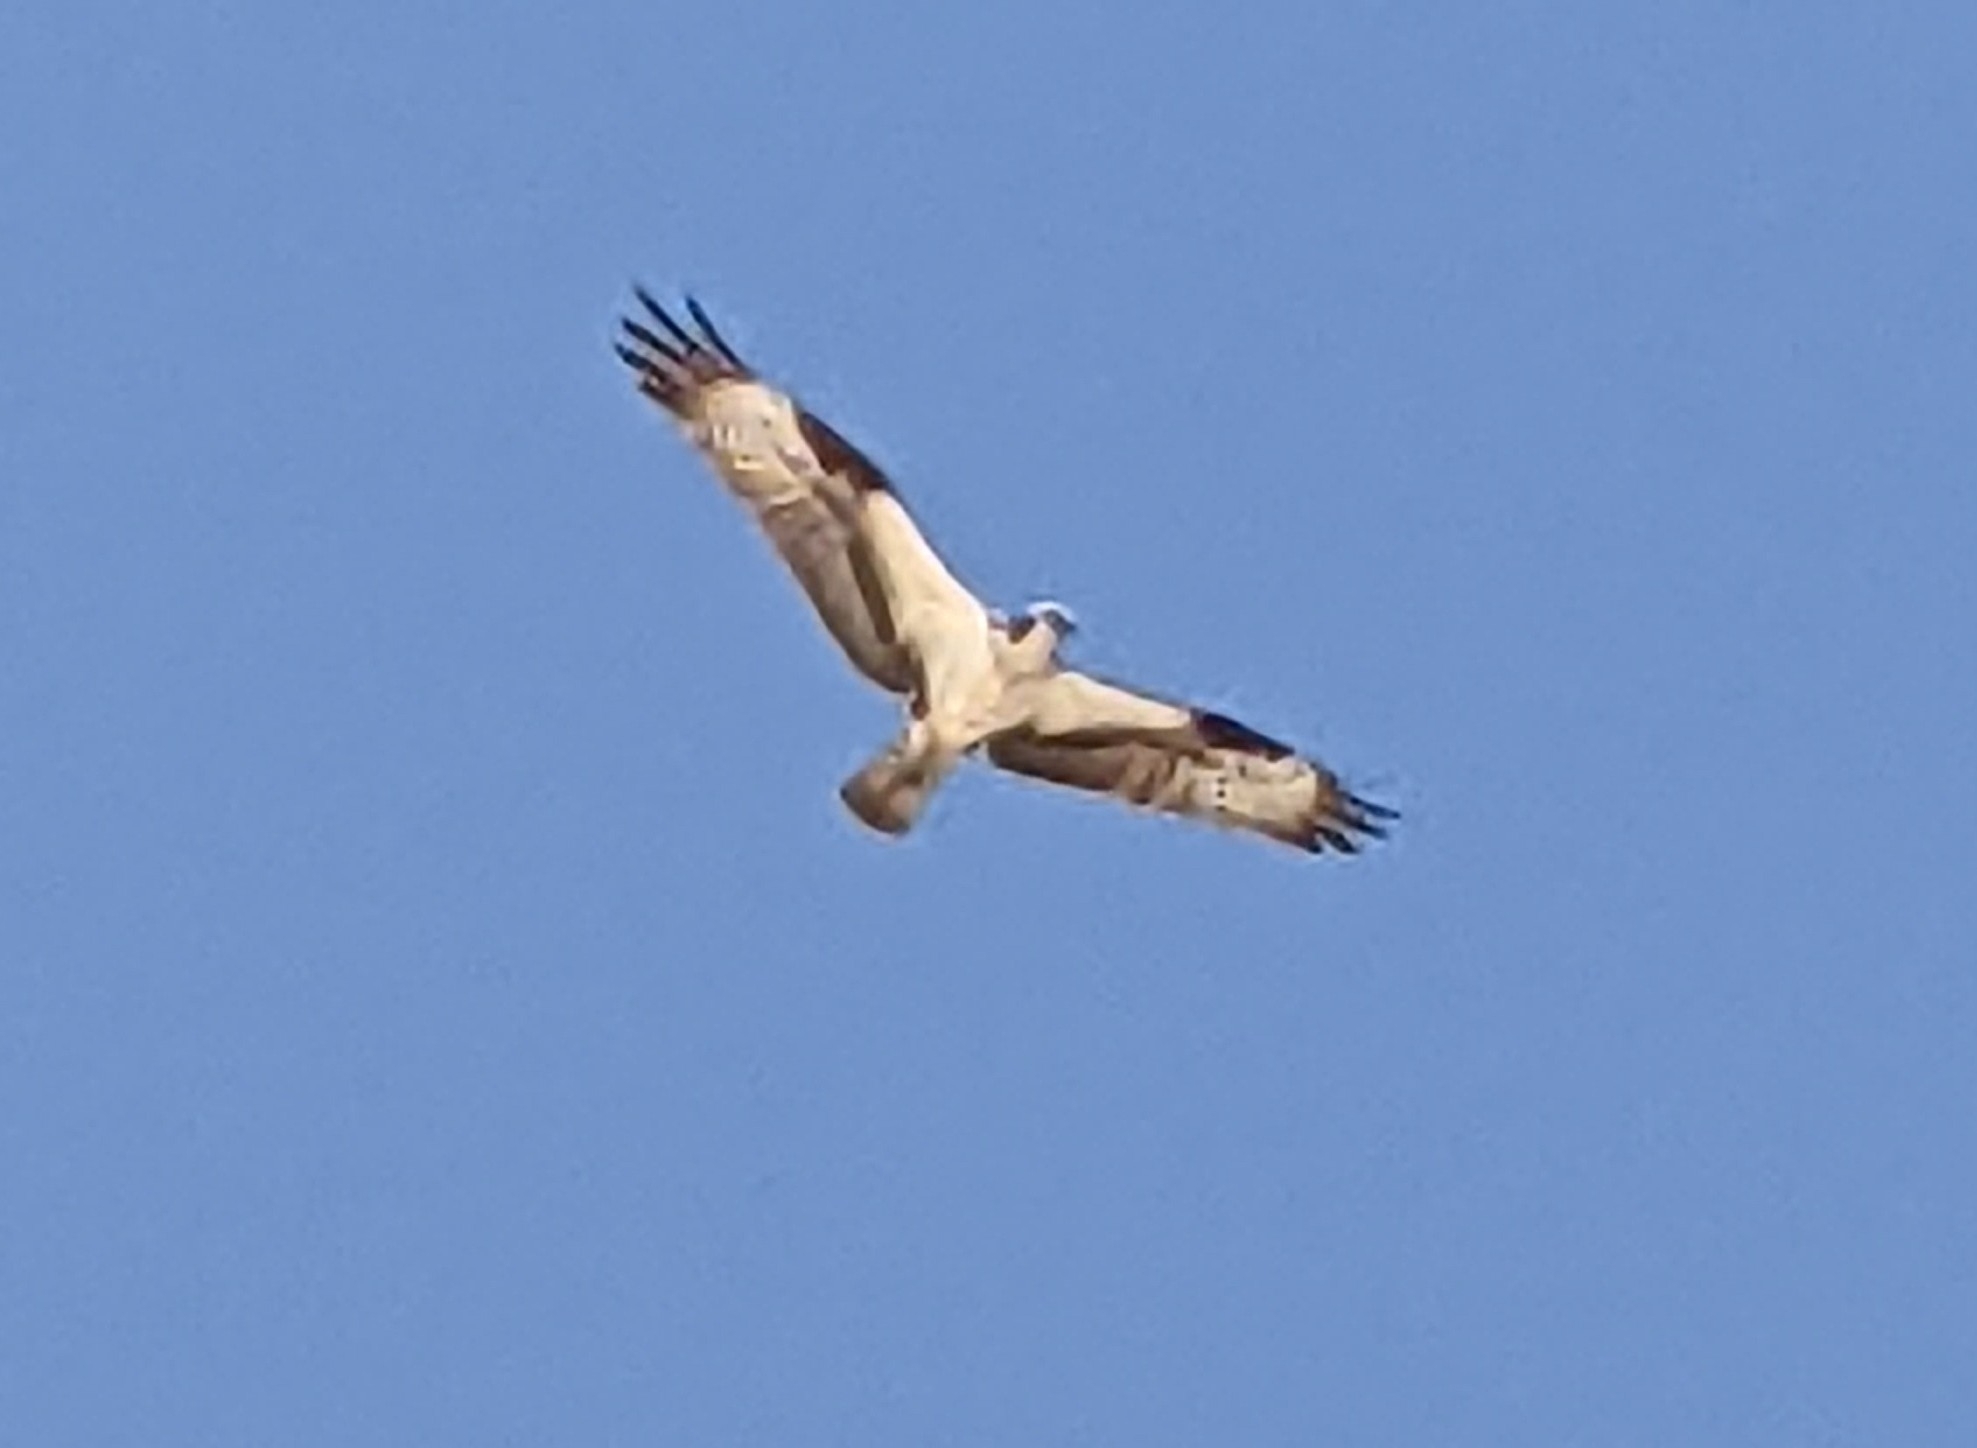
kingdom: Animalia
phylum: Chordata
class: Aves
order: Accipitriformes
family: Pandionidae
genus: Pandion
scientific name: Pandion haliaetus
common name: Osprey
